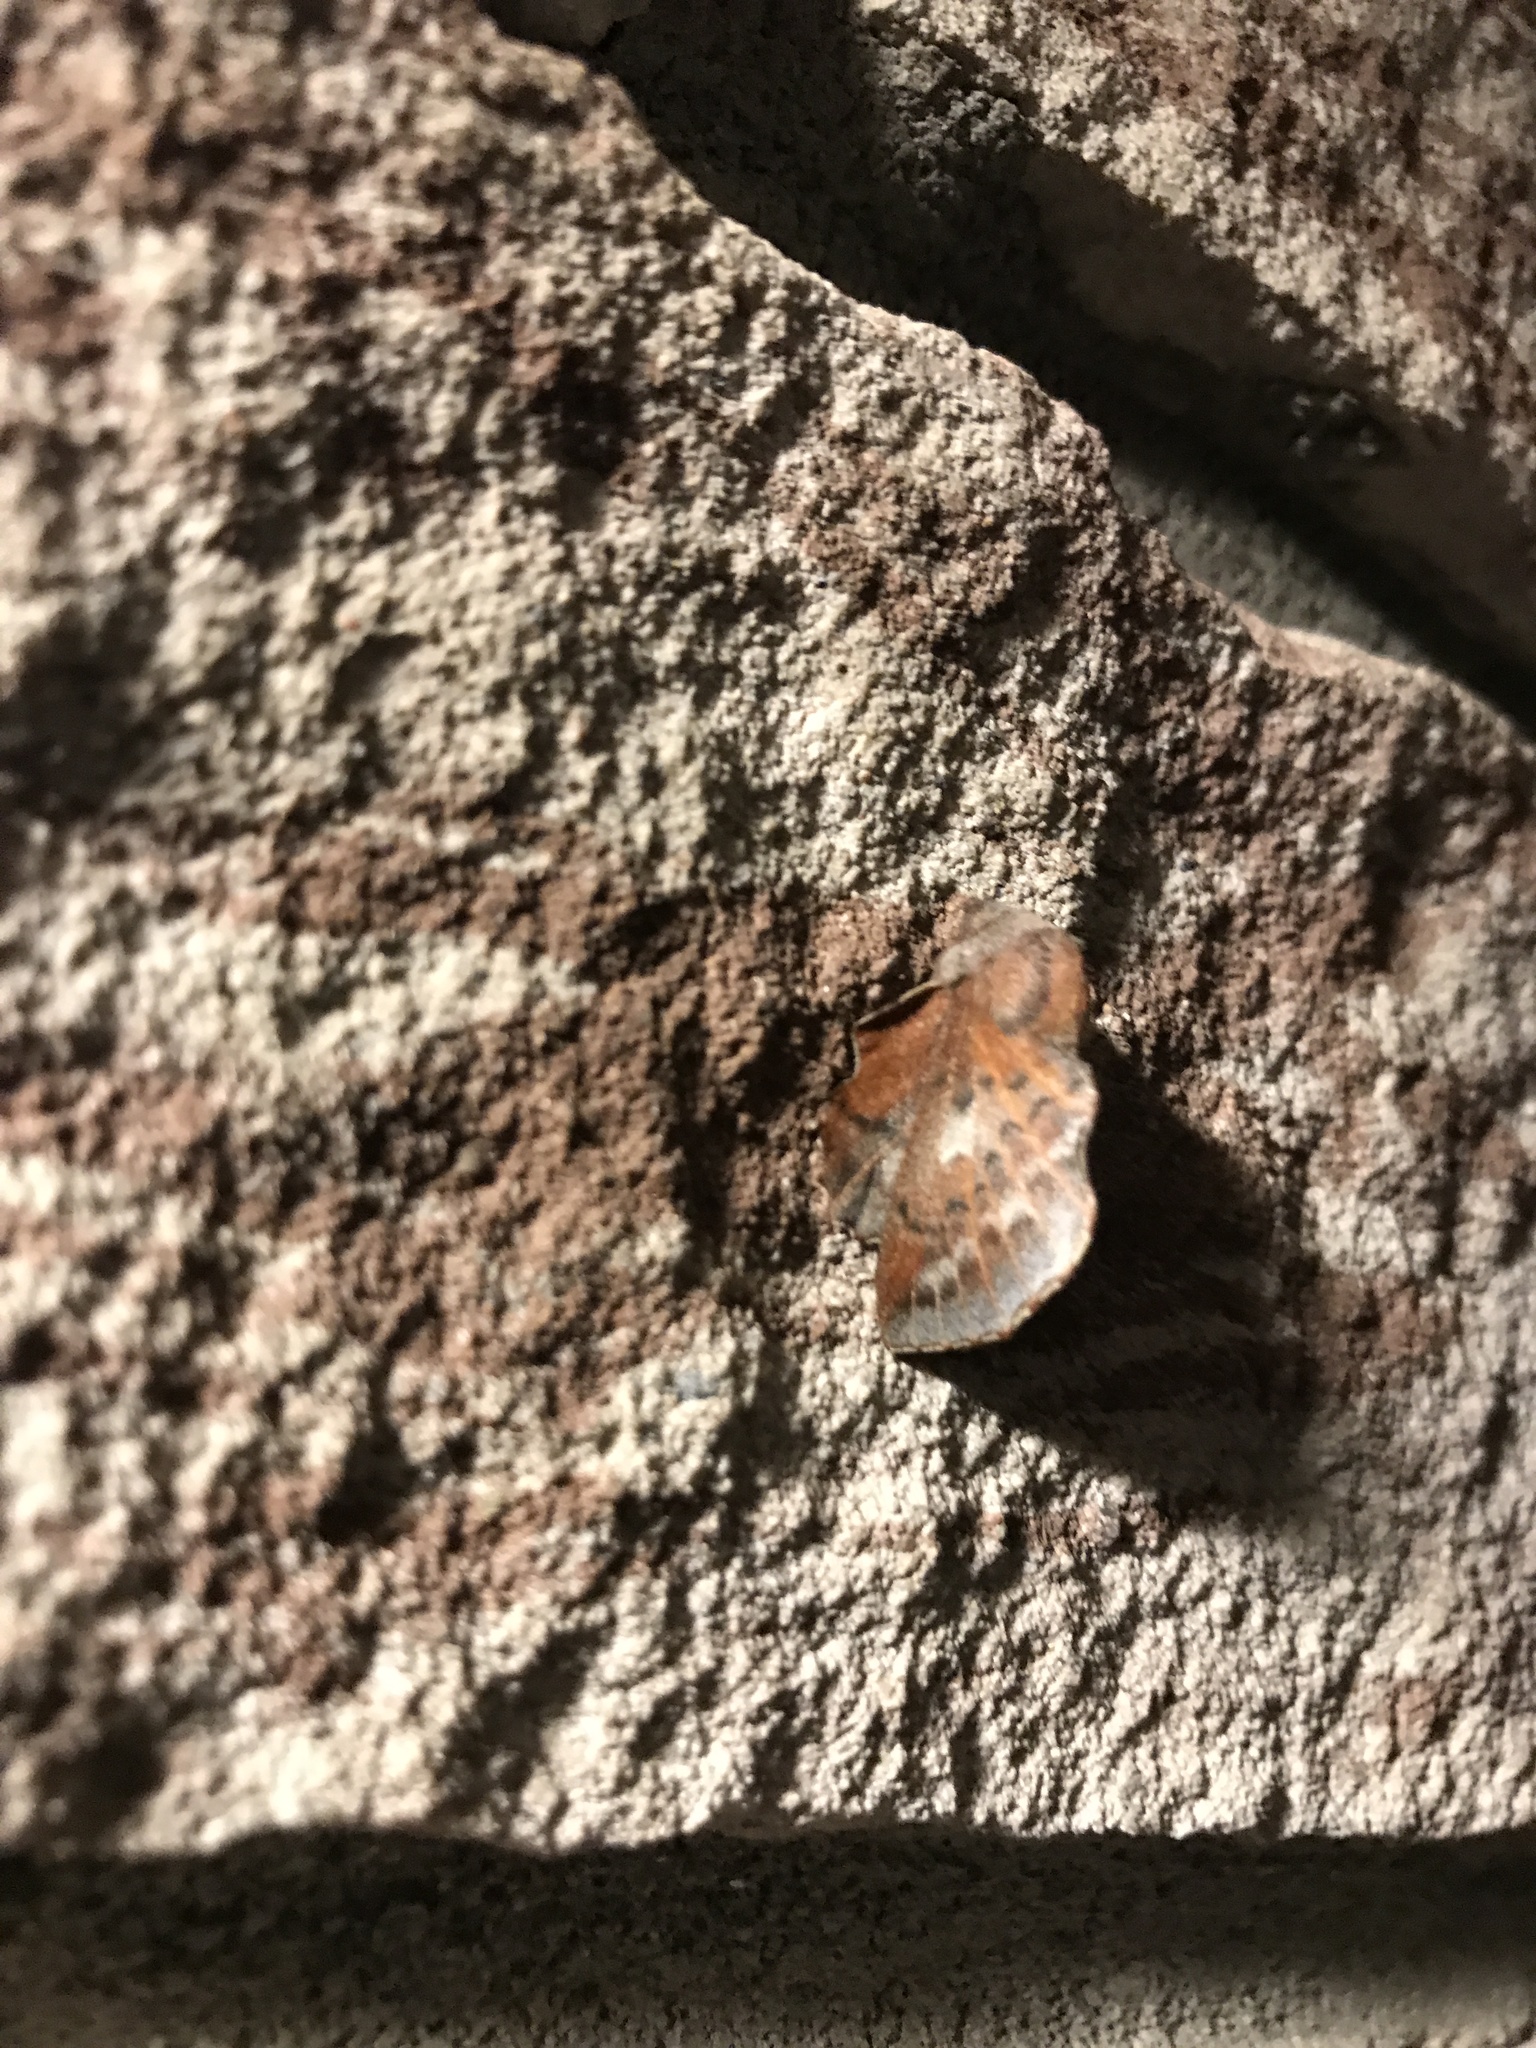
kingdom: Animalia
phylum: Arthropoda
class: Insecta
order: Lepidoptera
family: Lasiocampidae
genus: Phyllodesma
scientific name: Phyllodesma americana
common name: American lappet moth
